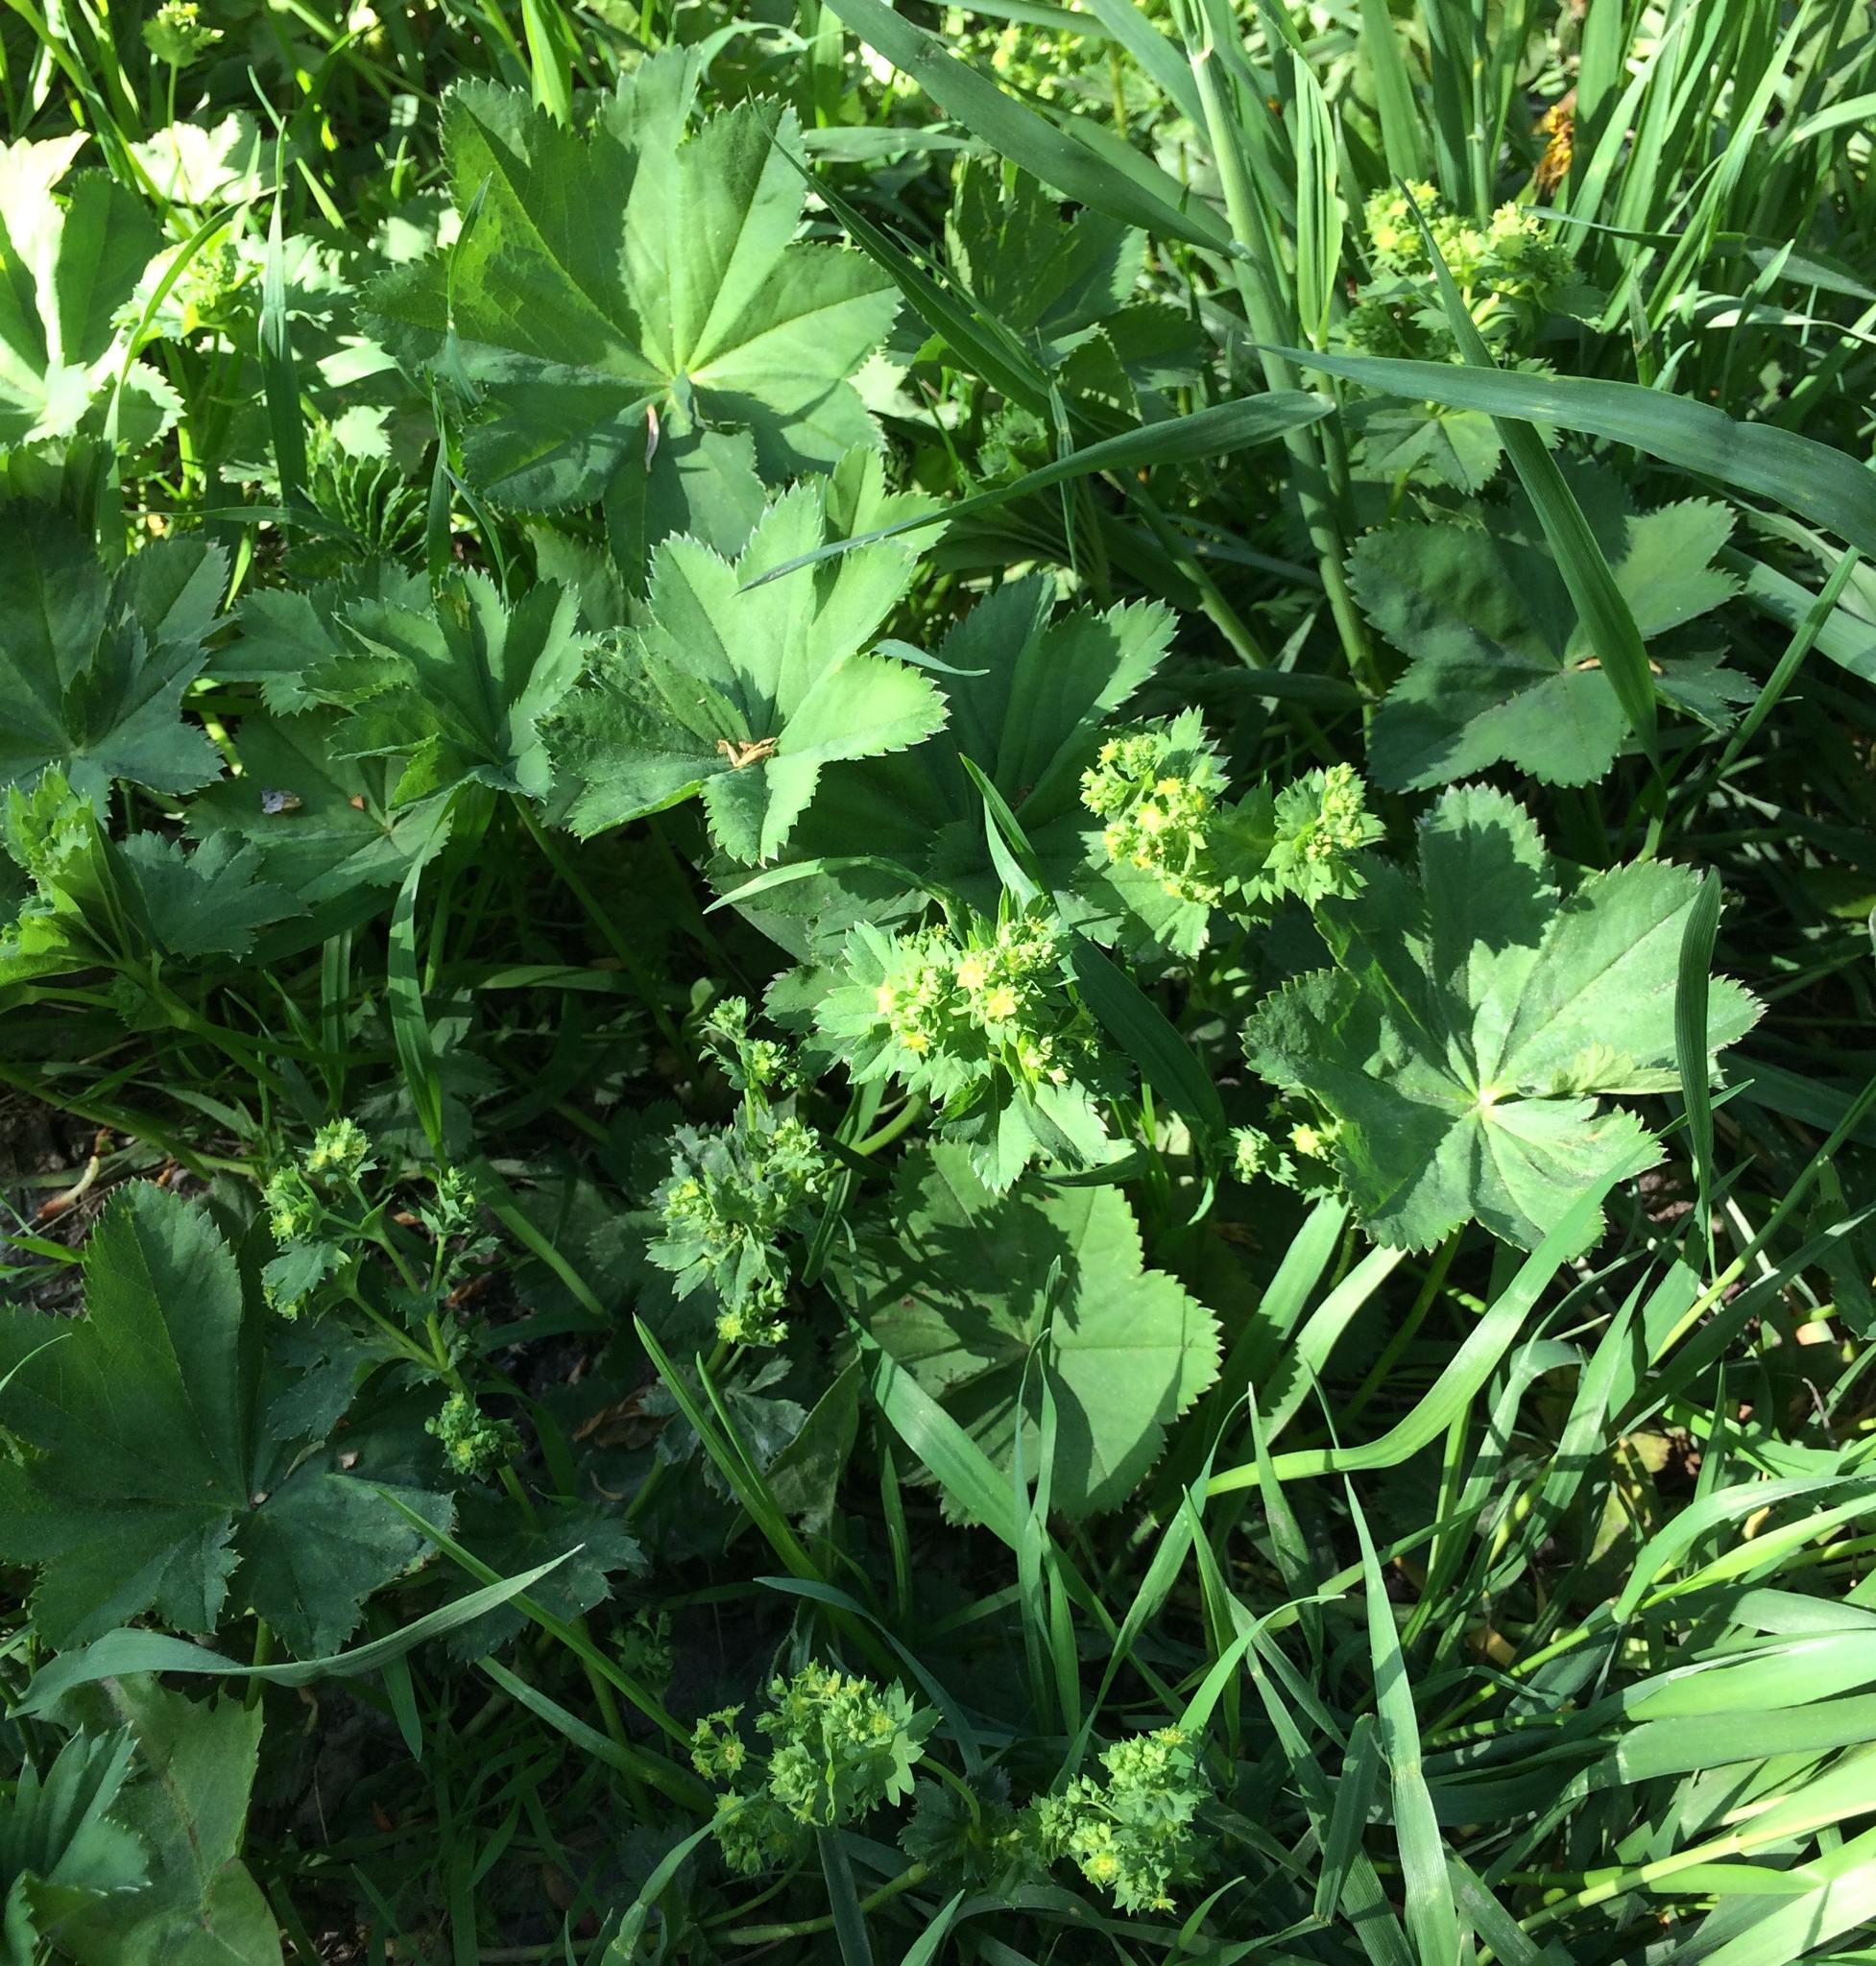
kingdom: Plantae
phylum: Tracheophyta
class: Magnoliopsida
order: Rosales
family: Rosaceae
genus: Alchemilla
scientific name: Alchemilla subcrenata
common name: Broadtooth lady's mantle
